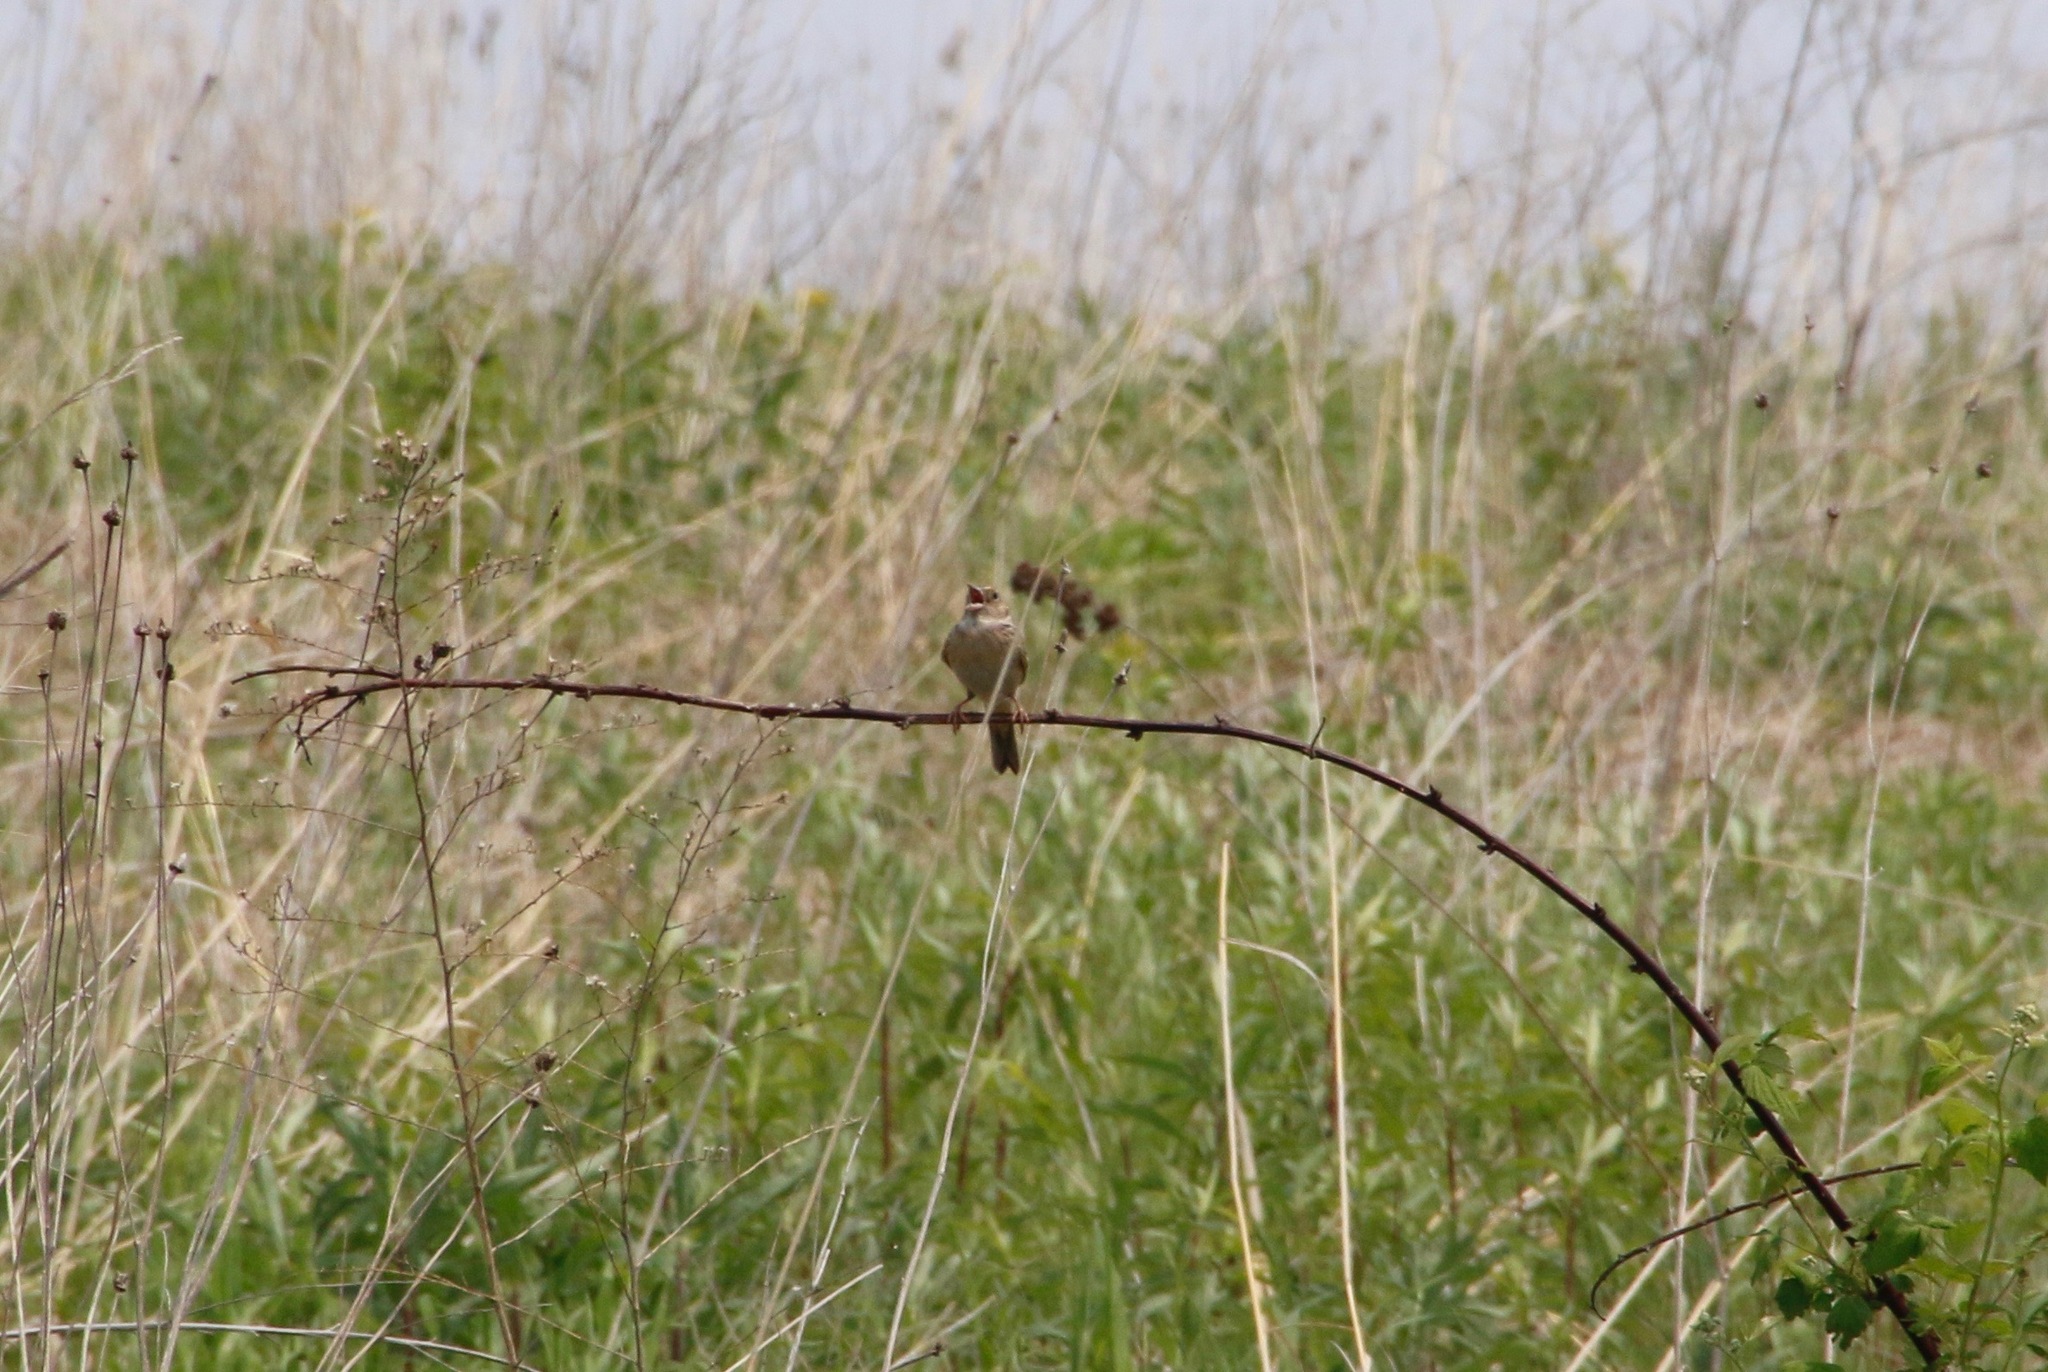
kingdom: Animalia
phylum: Chordata
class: Aves
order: Passeriformes
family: Passerellidae
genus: Ammodramus
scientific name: Ammodramus savannarum
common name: Grasshopper sparrow
